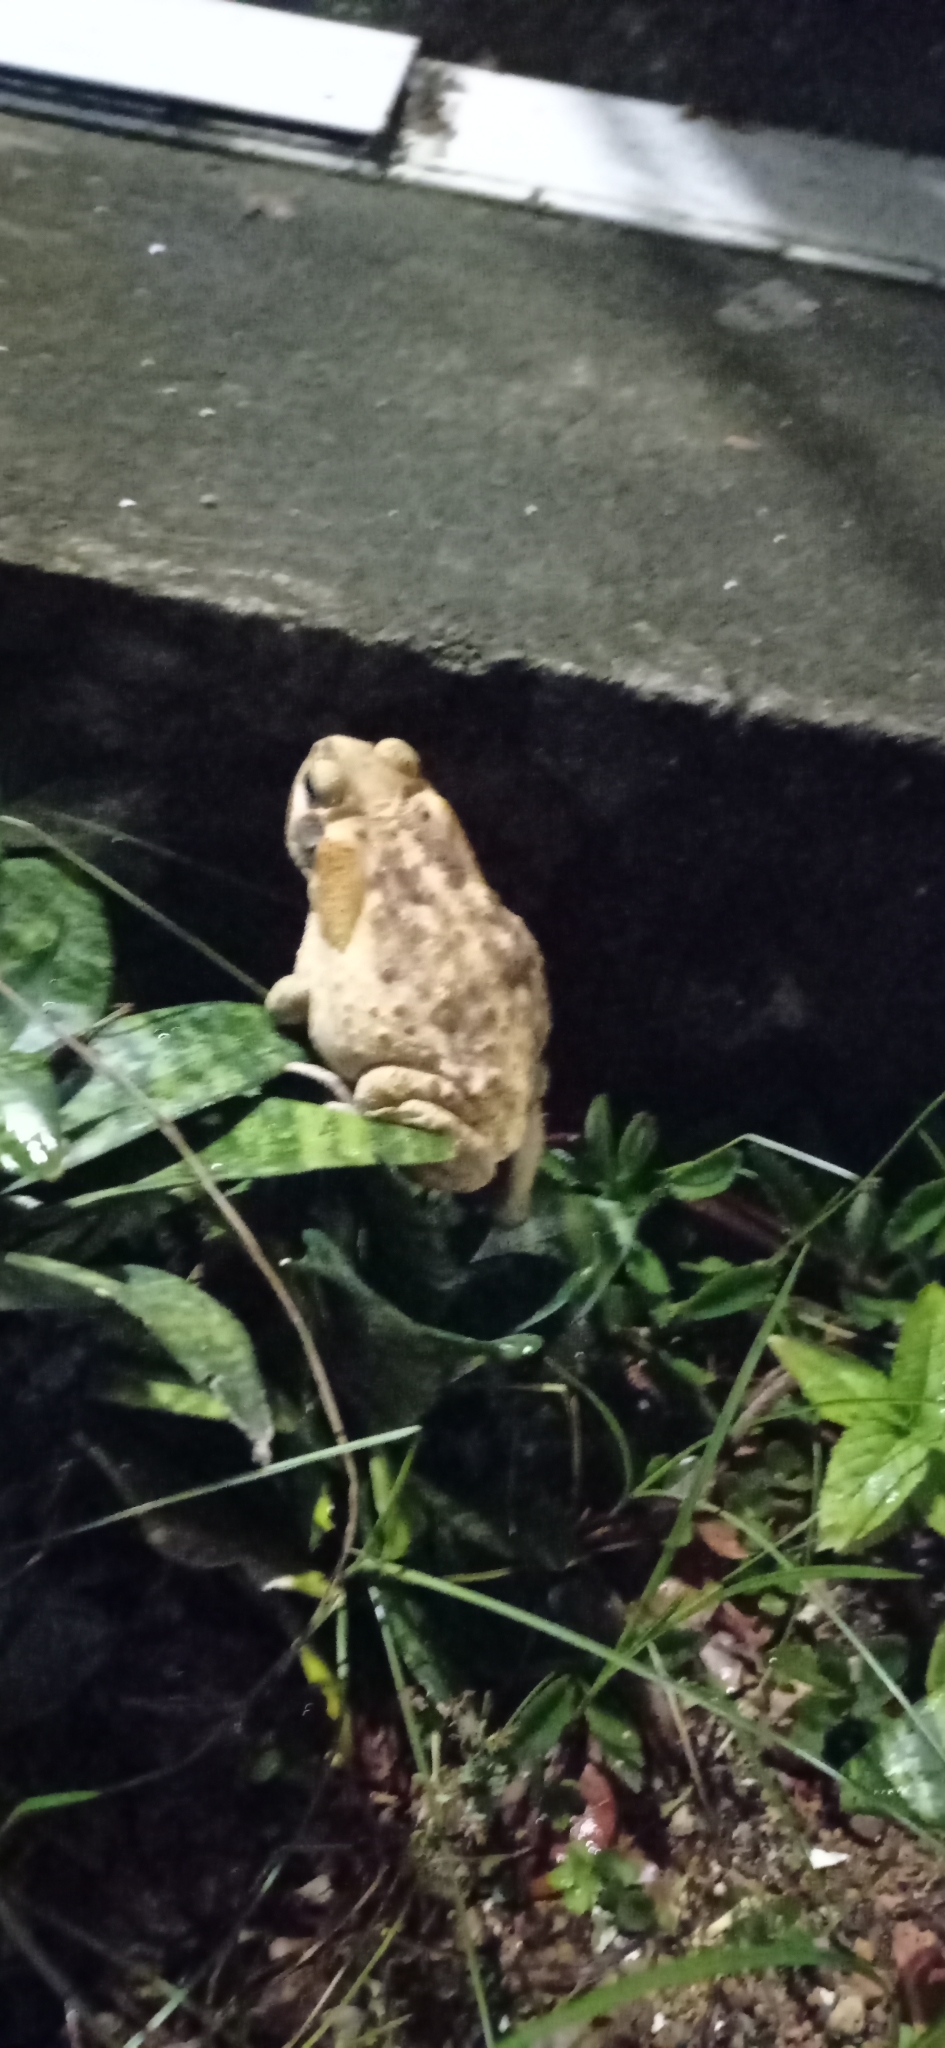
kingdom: Animalia
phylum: Chordata
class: Amphibia
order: Anura
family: Bufonidae
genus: Rhinella
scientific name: Rhinella diptycha
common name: Cope's toad
